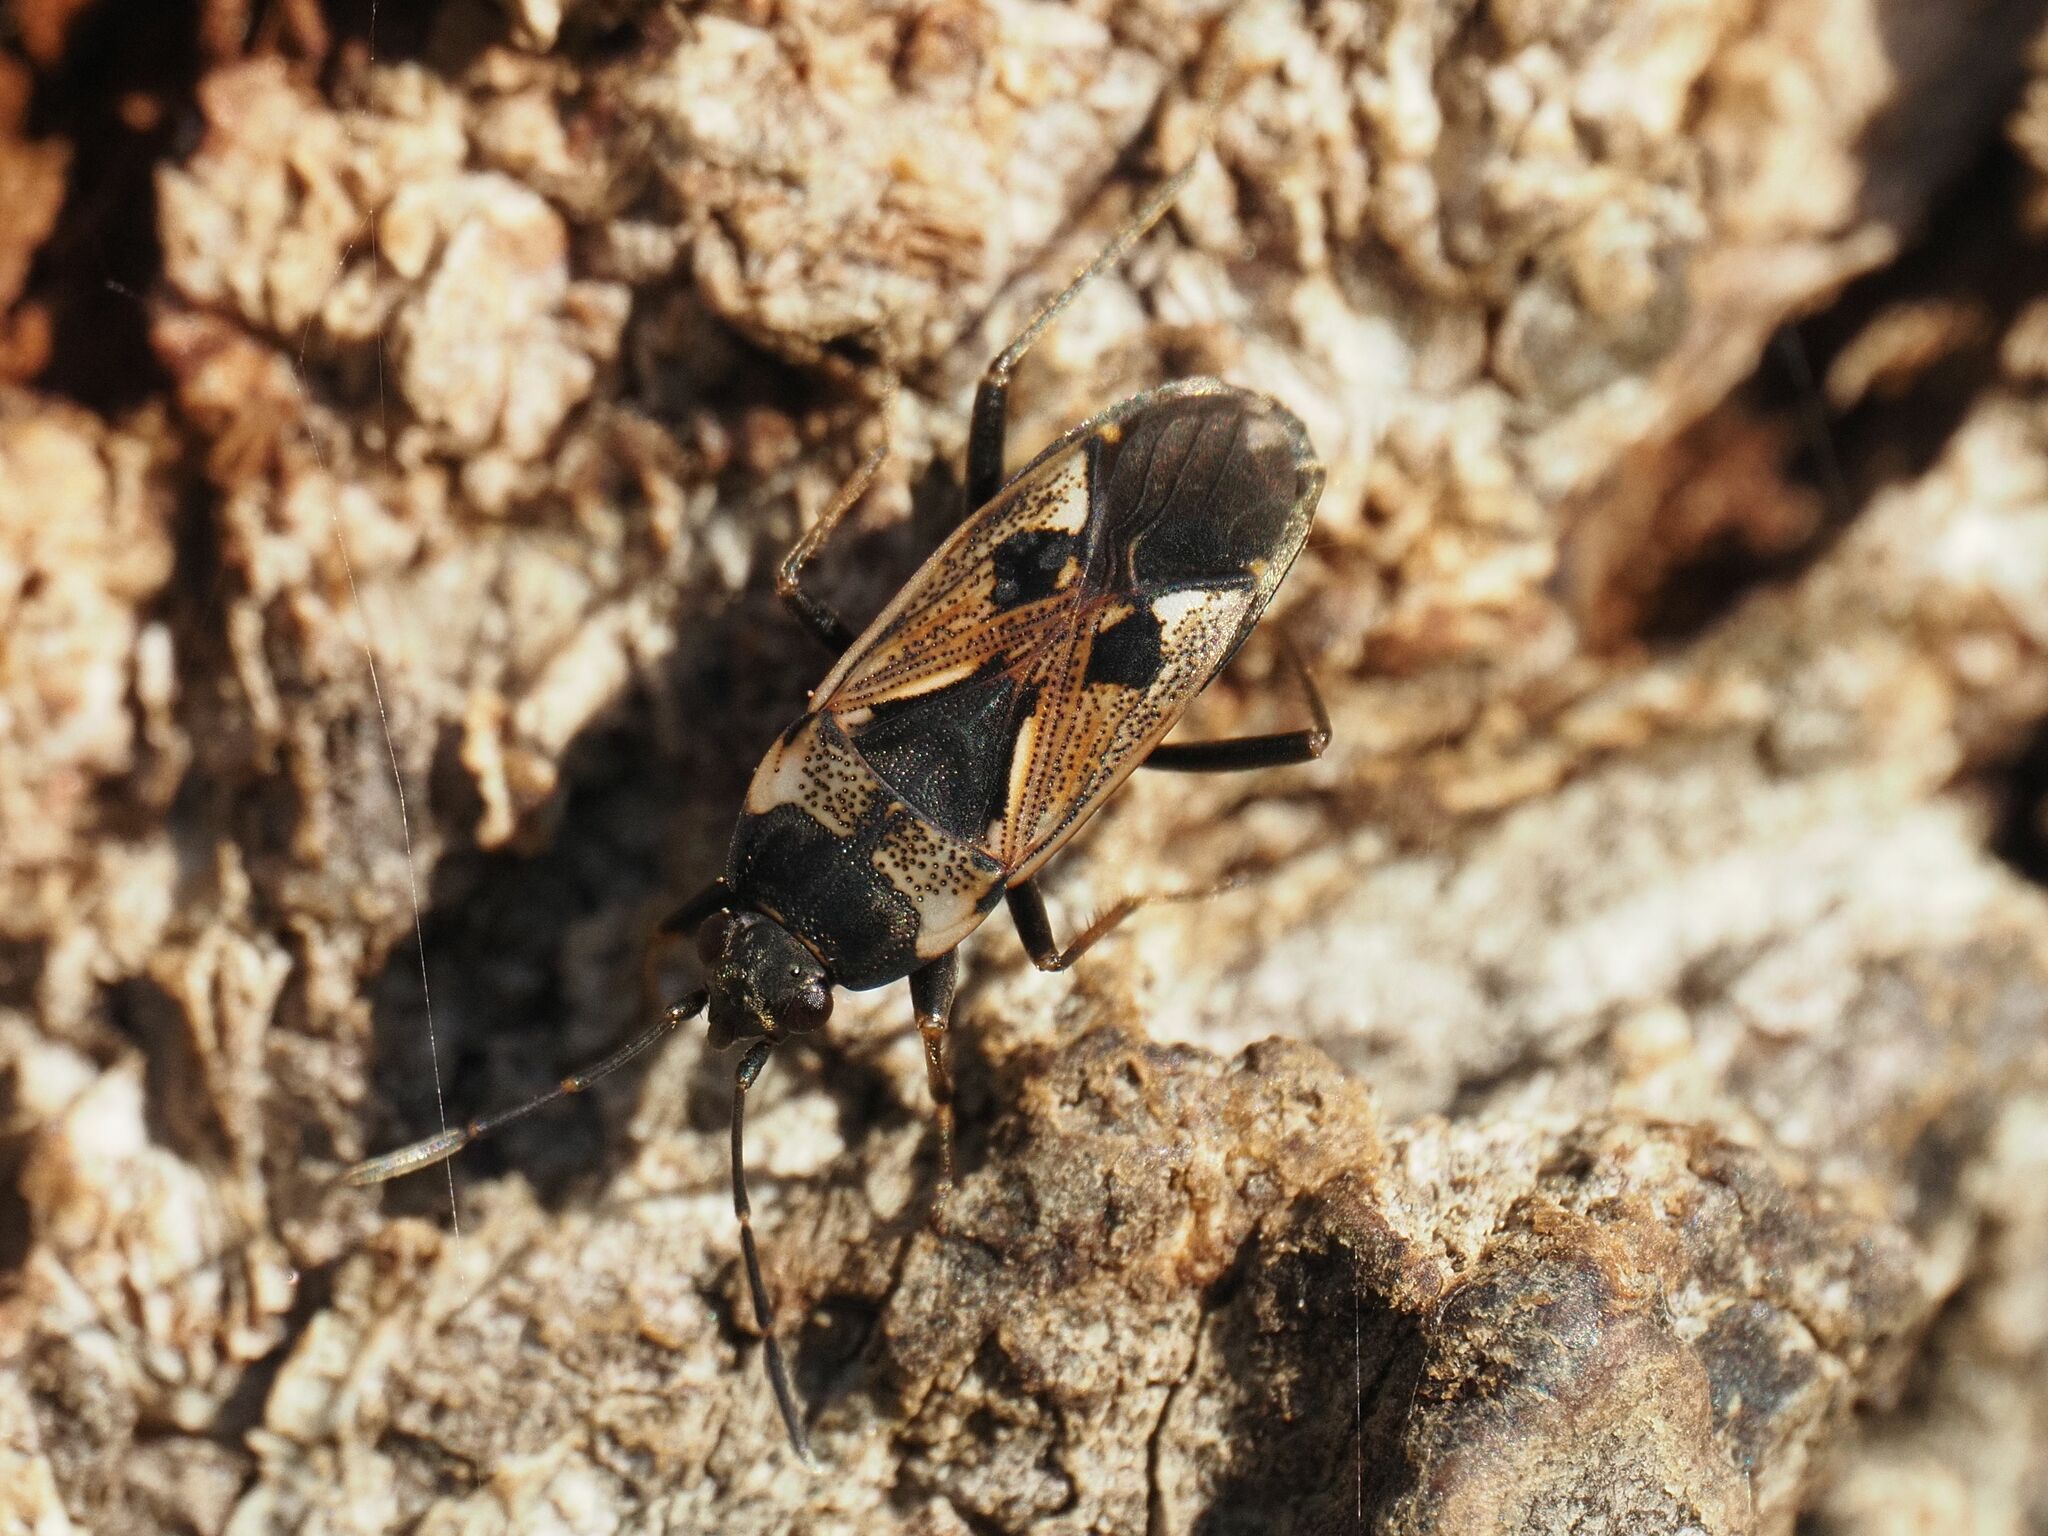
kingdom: Animalia
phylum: Arthropoda
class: Insecta
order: Hemiptera
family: Rhyparochromidae
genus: Rhyparochromus
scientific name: Rhyparochromus vulgaris
